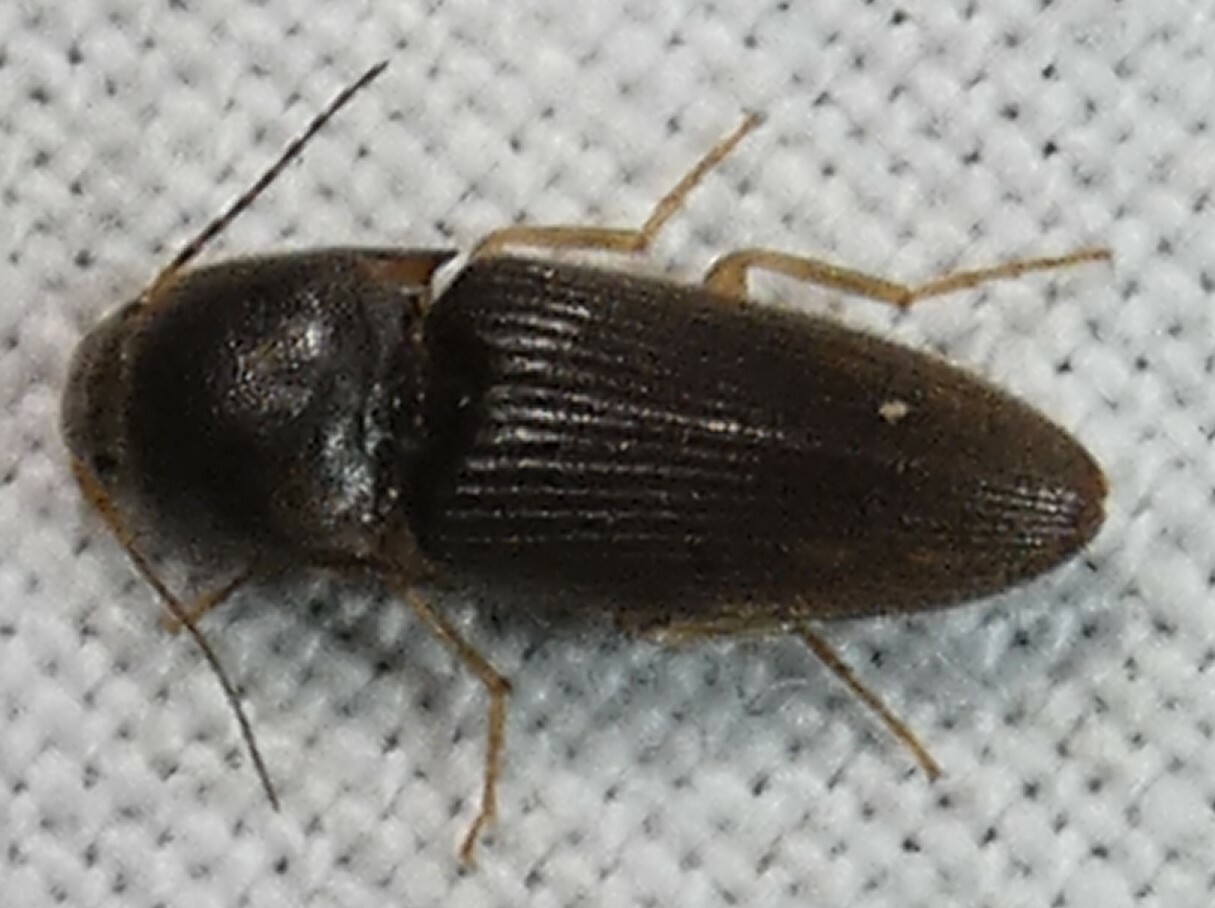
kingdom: Animalia
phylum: Arthropoda
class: Insecta
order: Coleoptera
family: Elateridae
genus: Monocrepidius
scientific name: Monocrepidius
